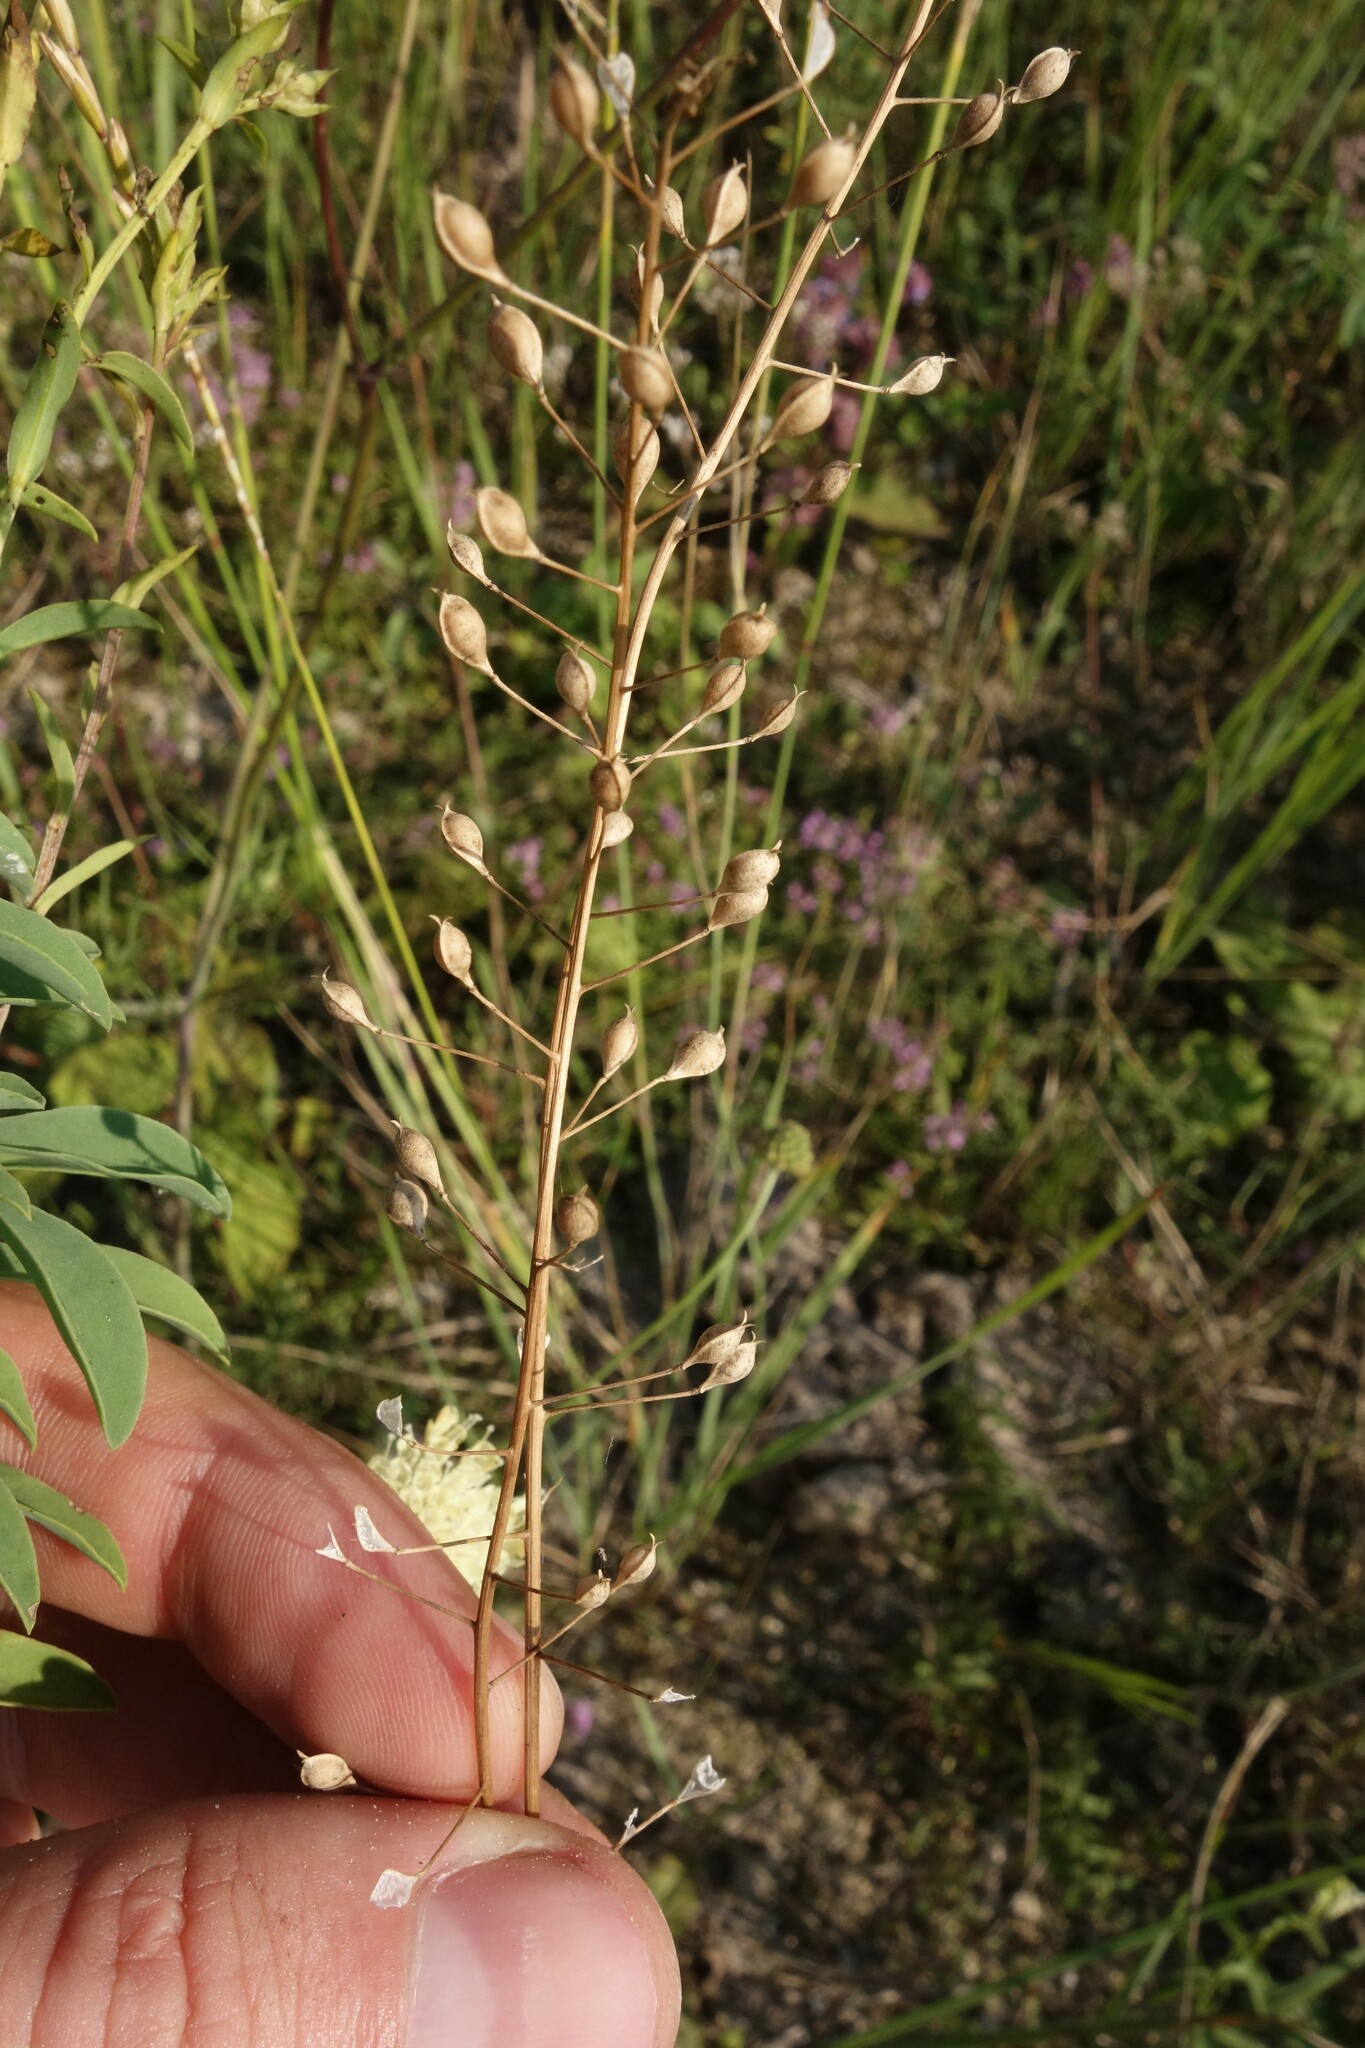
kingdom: Plantae
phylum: Tracheophyta
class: Magnoliopsida
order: Brassicales
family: Brassicaceae
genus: Camelina
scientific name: Camelina microcarpa
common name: Lesser gold-of-pleasure
